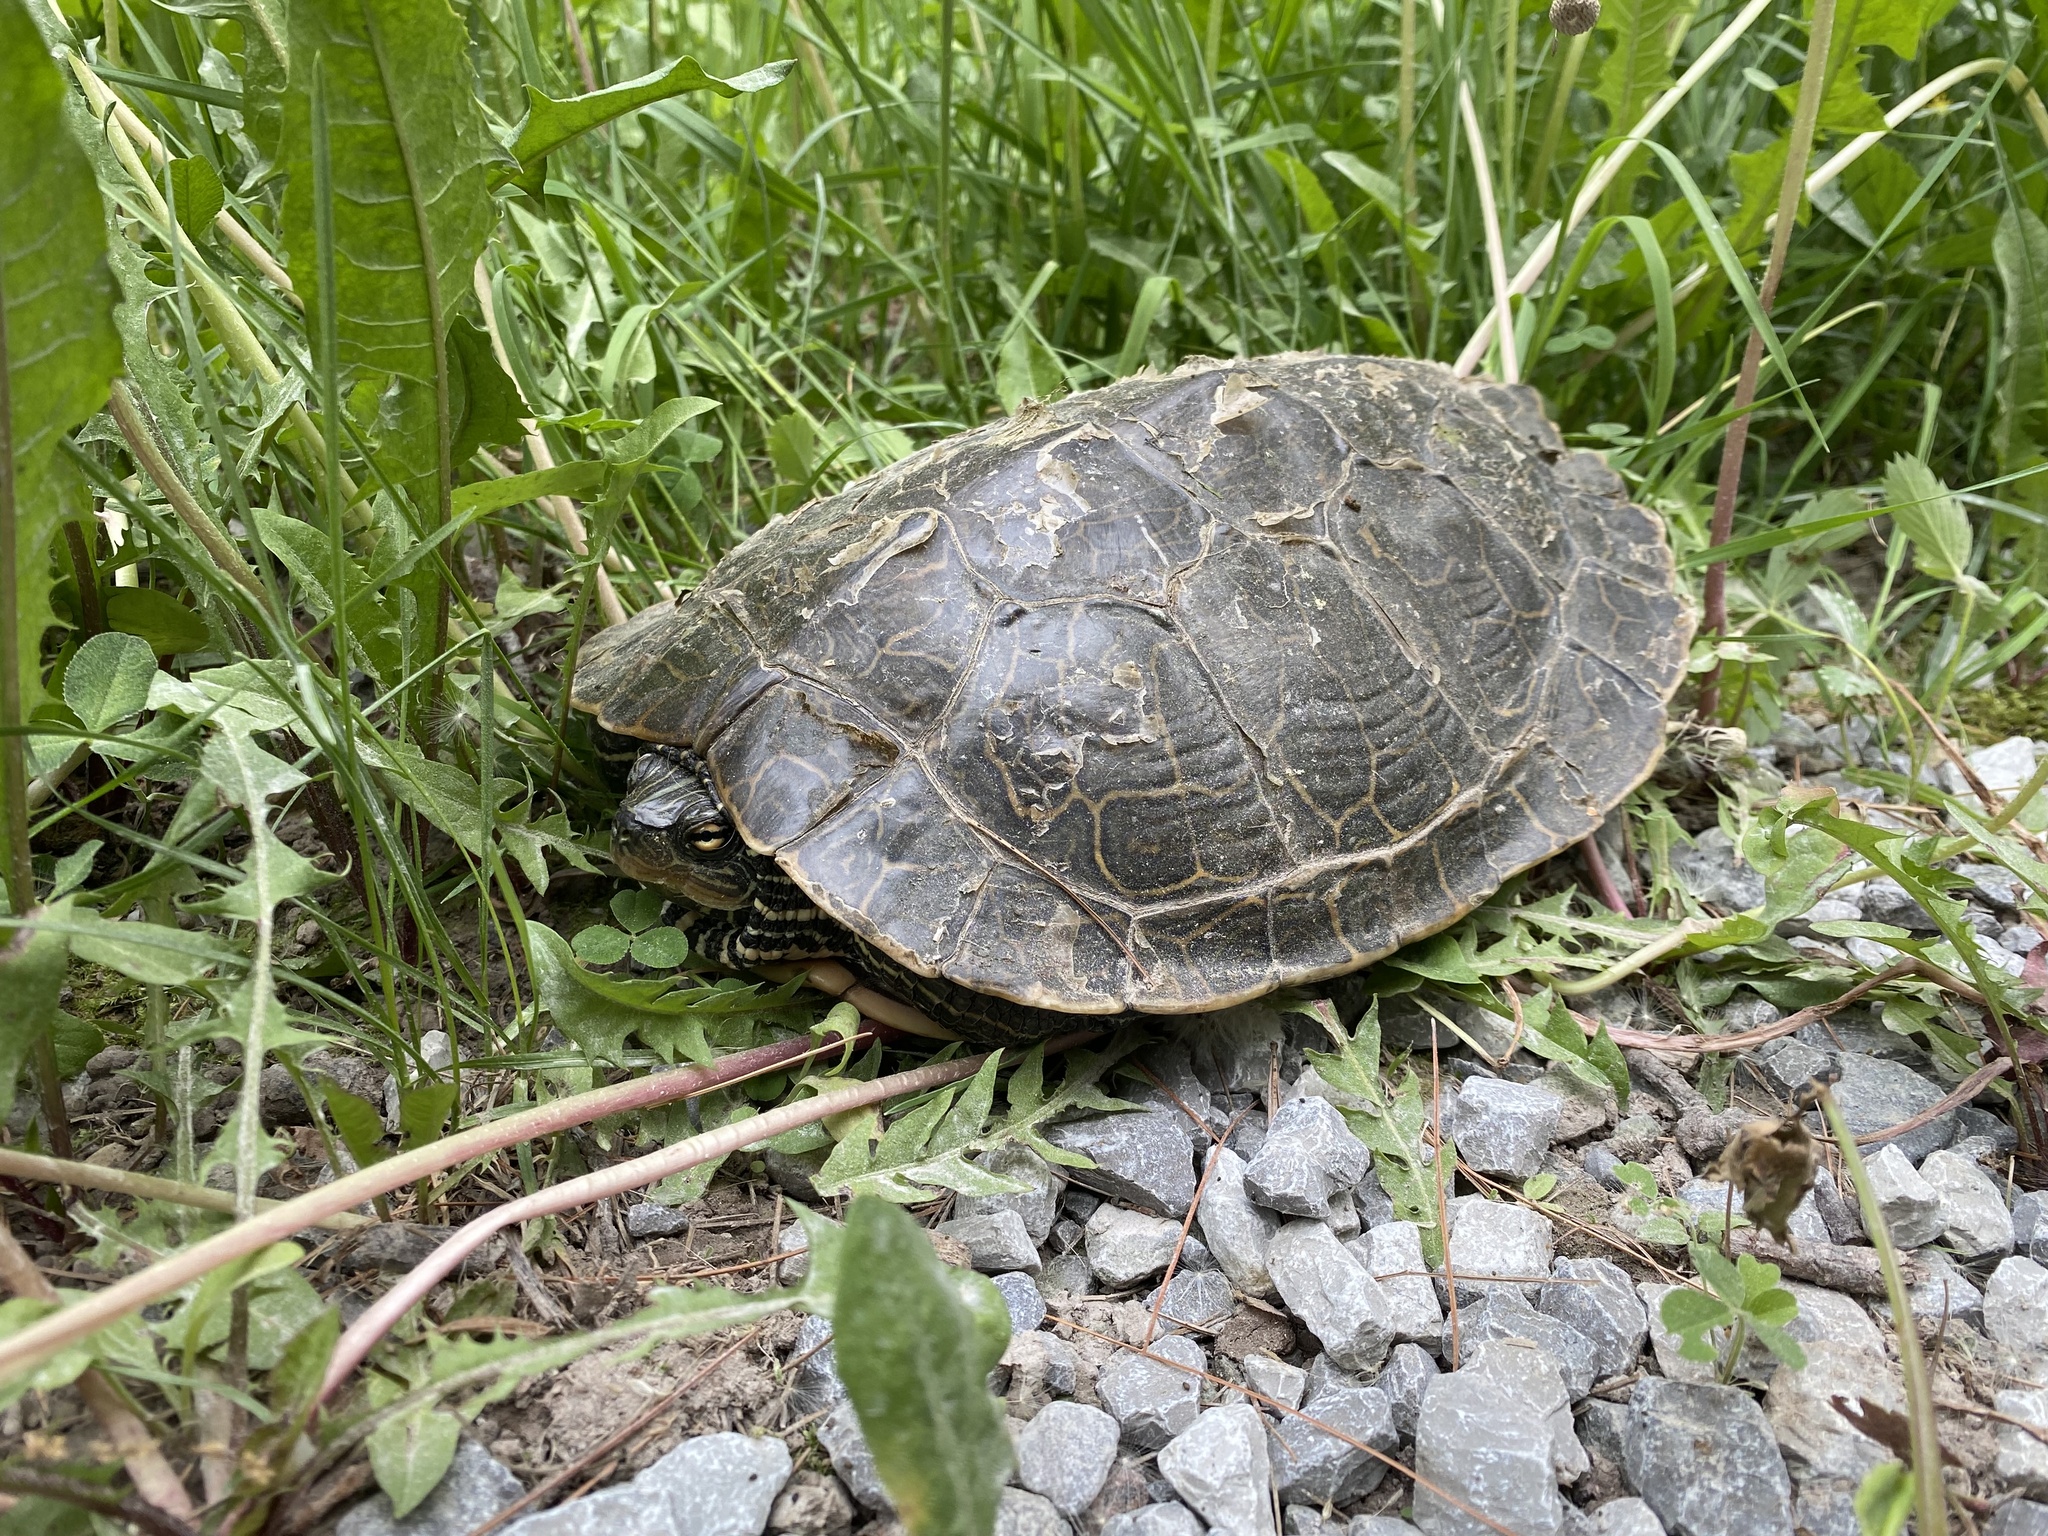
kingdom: Animalia
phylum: Chordata
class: Testudines
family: Emydidae
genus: Graptemys
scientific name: Graptemys geographica
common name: Common map turtle
